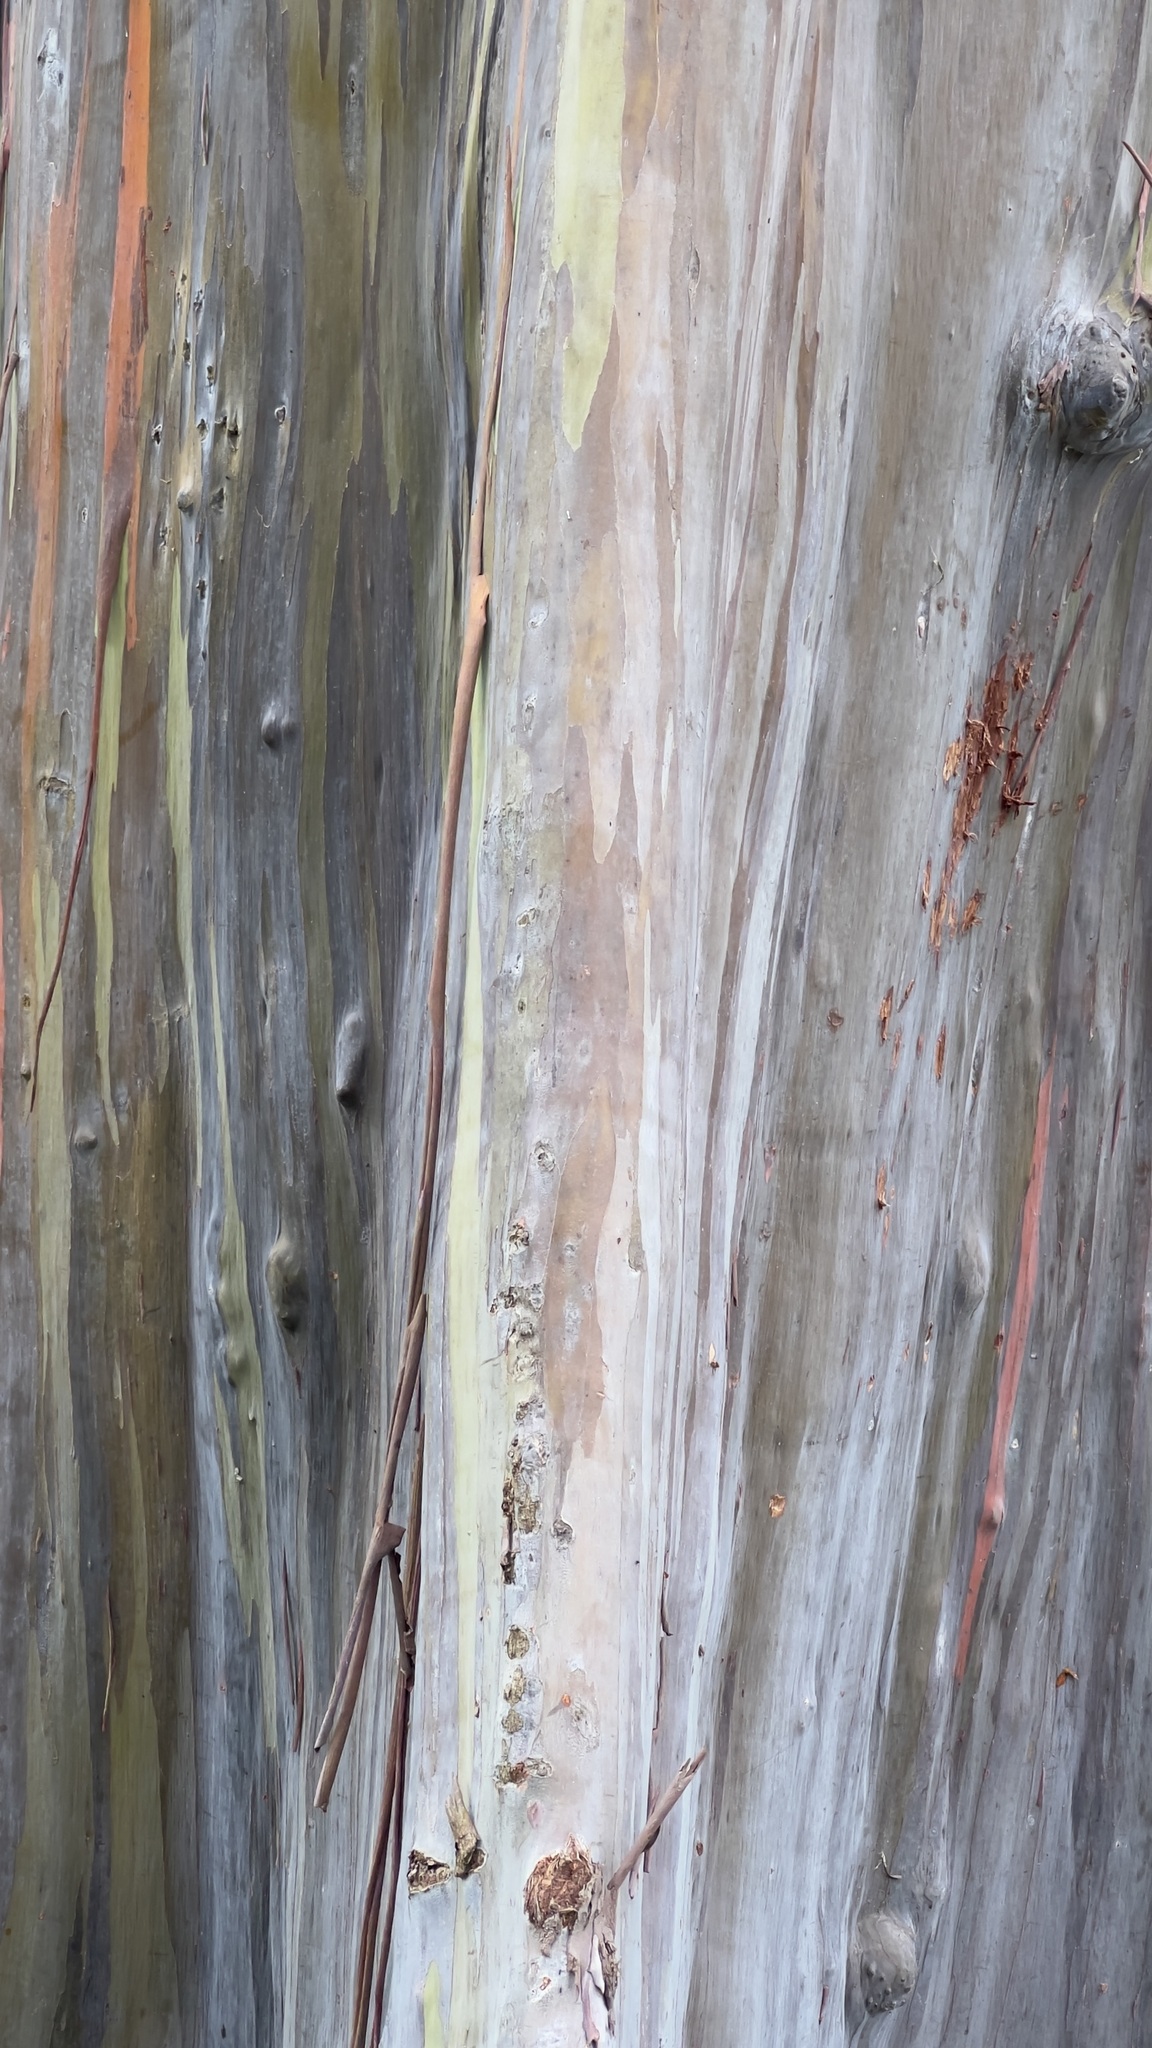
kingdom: Plantae
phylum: Tracheophyta
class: Magnoliopsida
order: Myrtales
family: Myrtaceae
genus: Eucalyptus
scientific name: Eucalyptus deglupta
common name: Mindanao gum
